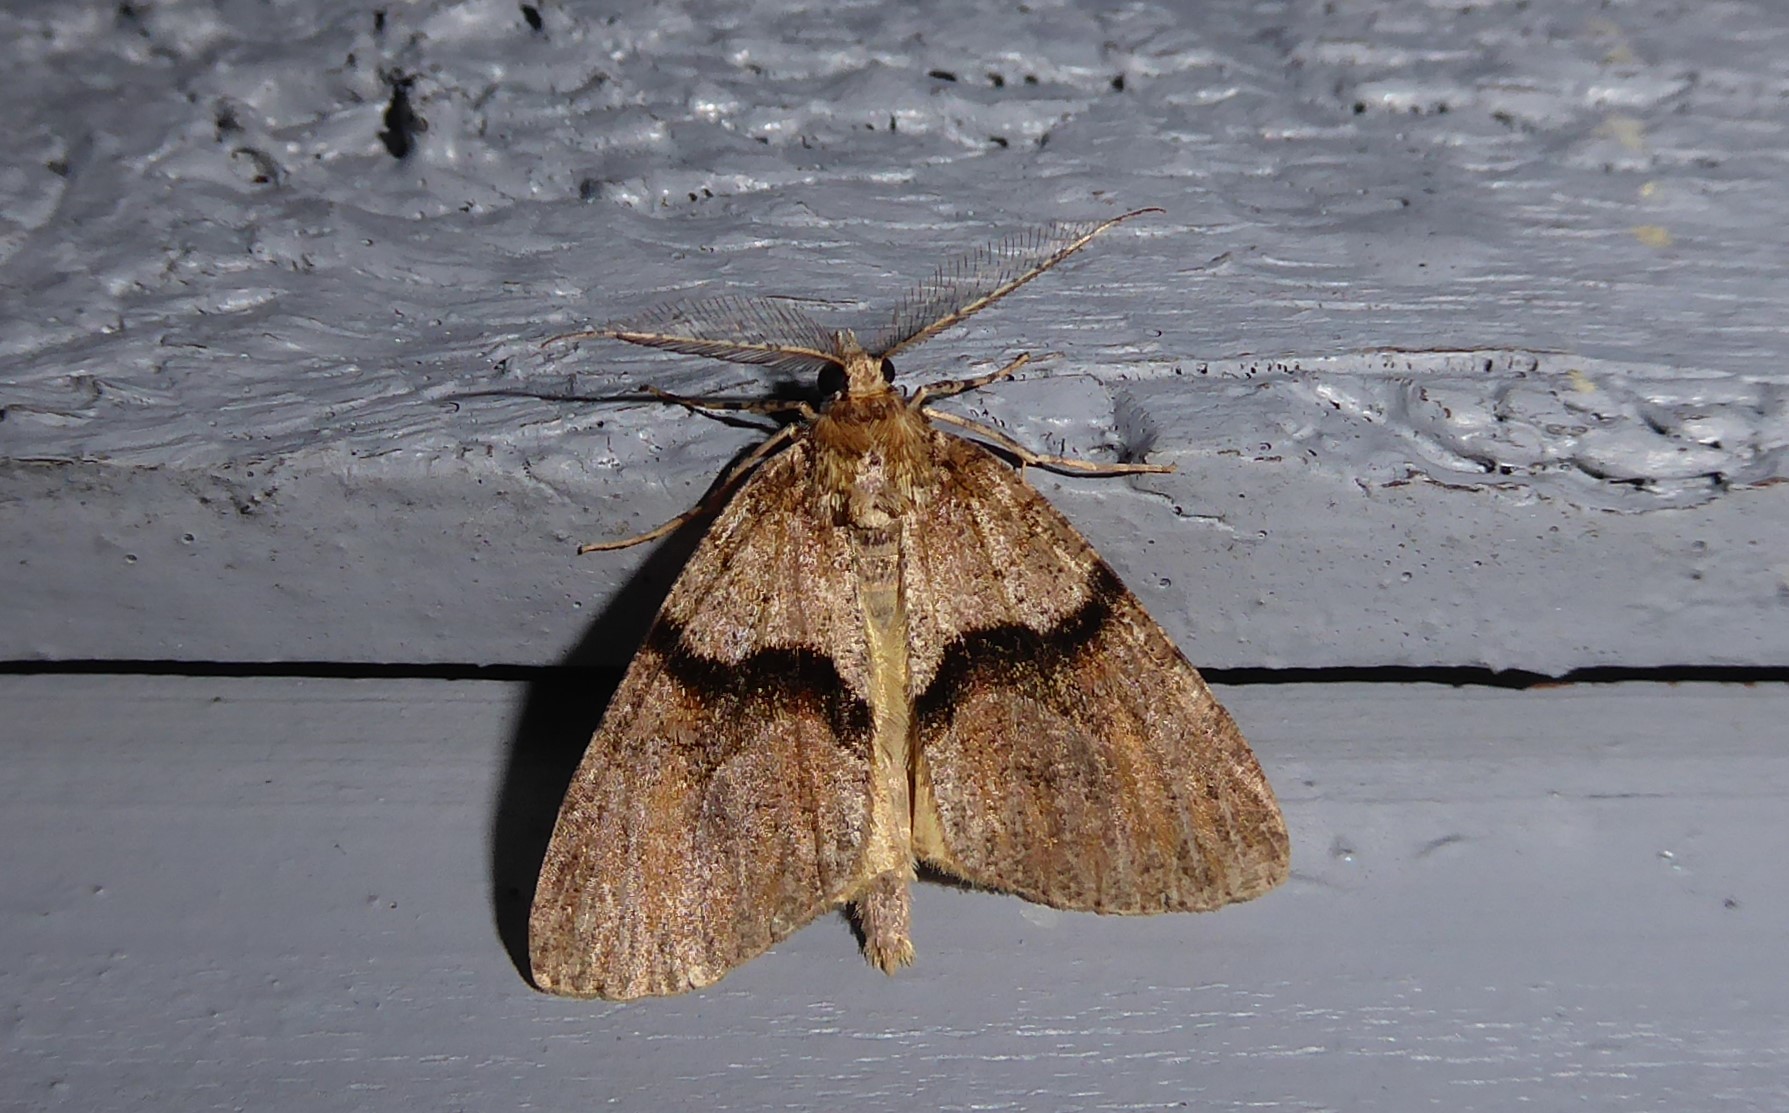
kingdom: Animalia
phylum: Arthropoda
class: Insecta
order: Lepidoptera
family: Geometridae
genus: Pseudocoremia
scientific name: Pseudocoremia suavis
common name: Common forest looper
